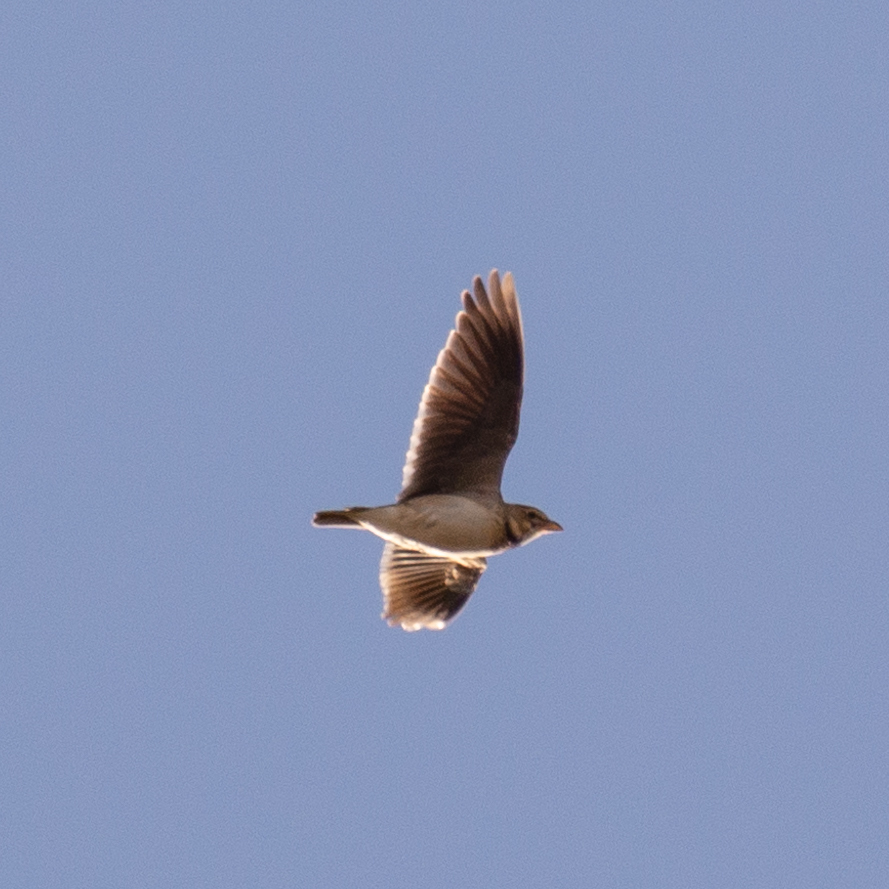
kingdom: Animalia
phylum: Chordata
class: Aves
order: Passeriformes
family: Alaudidae
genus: Melanocorypha
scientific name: Melanocorypha calandra
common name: Calandra lark
